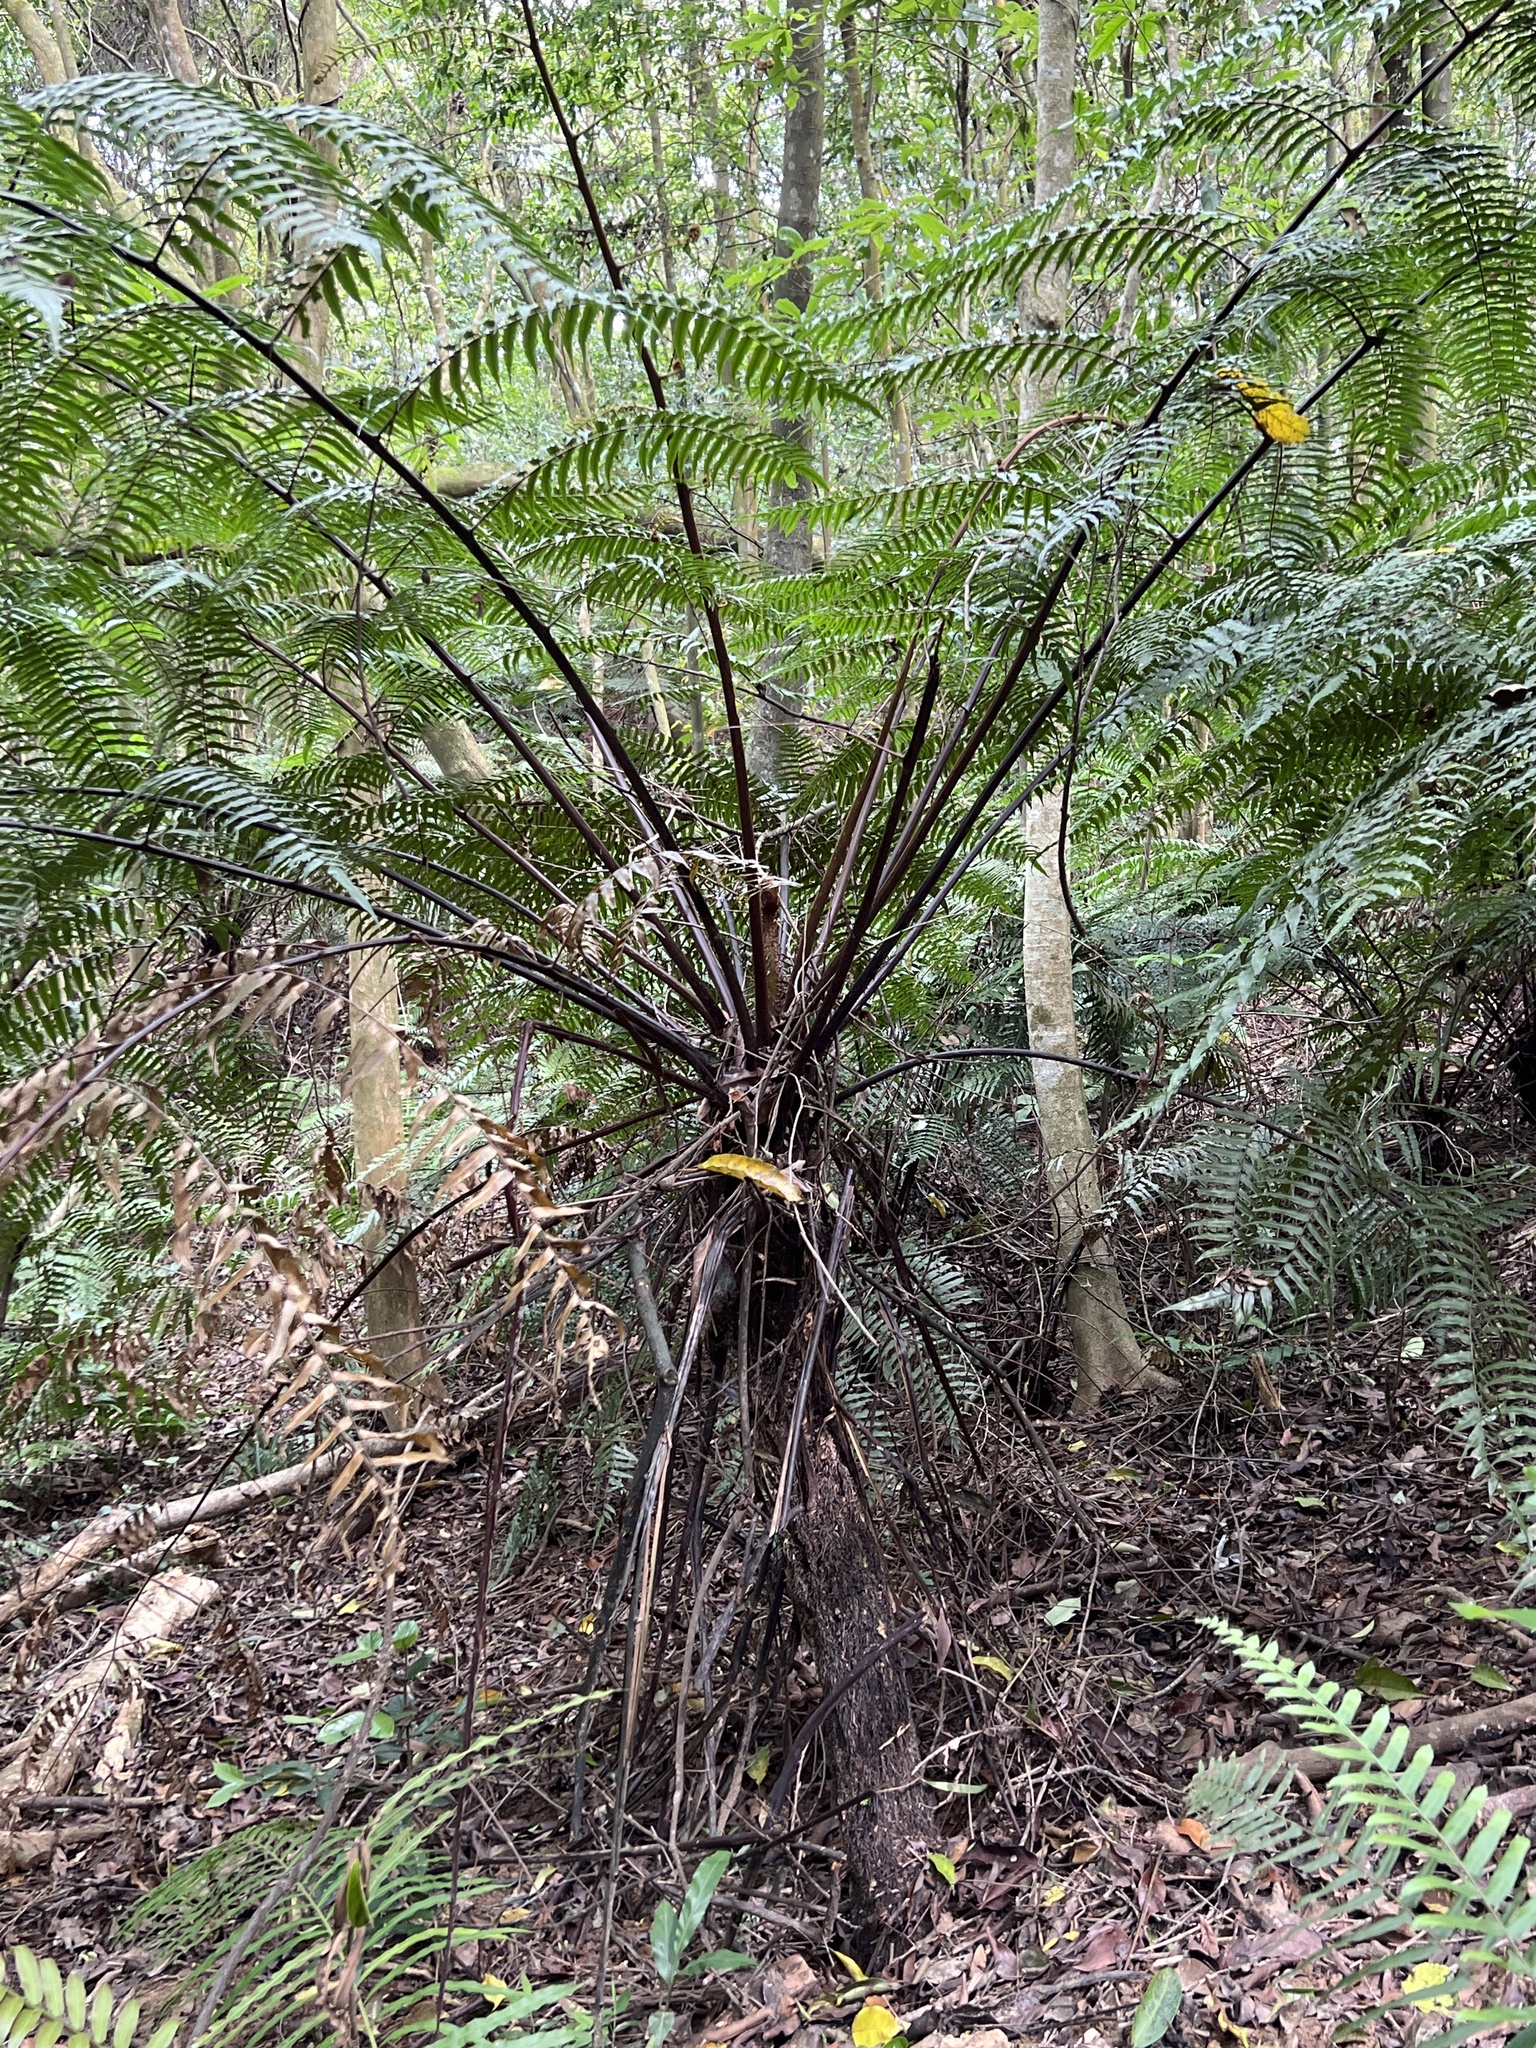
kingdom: Plantae
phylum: Tracheophyta
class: Polypodiopsida
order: Cyatheales
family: Cyatheaceae
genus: Gymnosphaera
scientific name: Gymnosphaera podophylla
